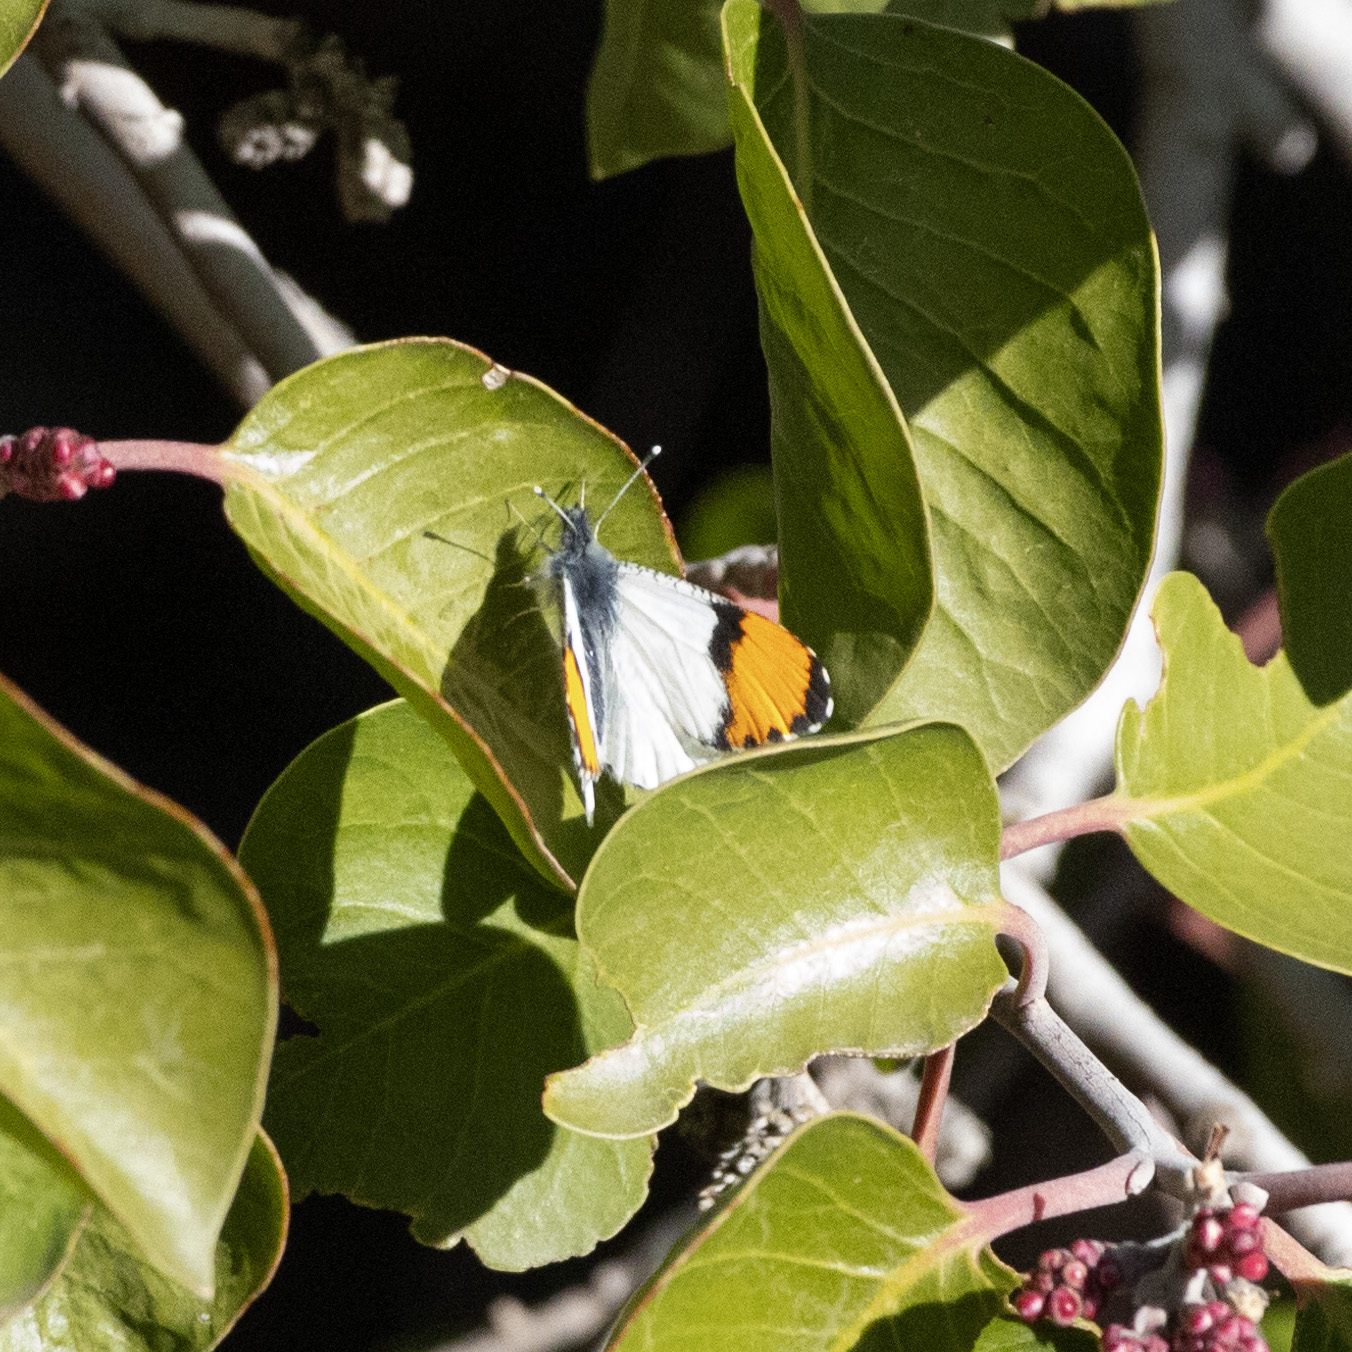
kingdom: Animalia
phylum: Arthropoda
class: Insecta
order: Lepidoptera
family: Pieridae
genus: Anthocharis
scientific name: Anthocharis thoosa
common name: Southwestern orangetip
